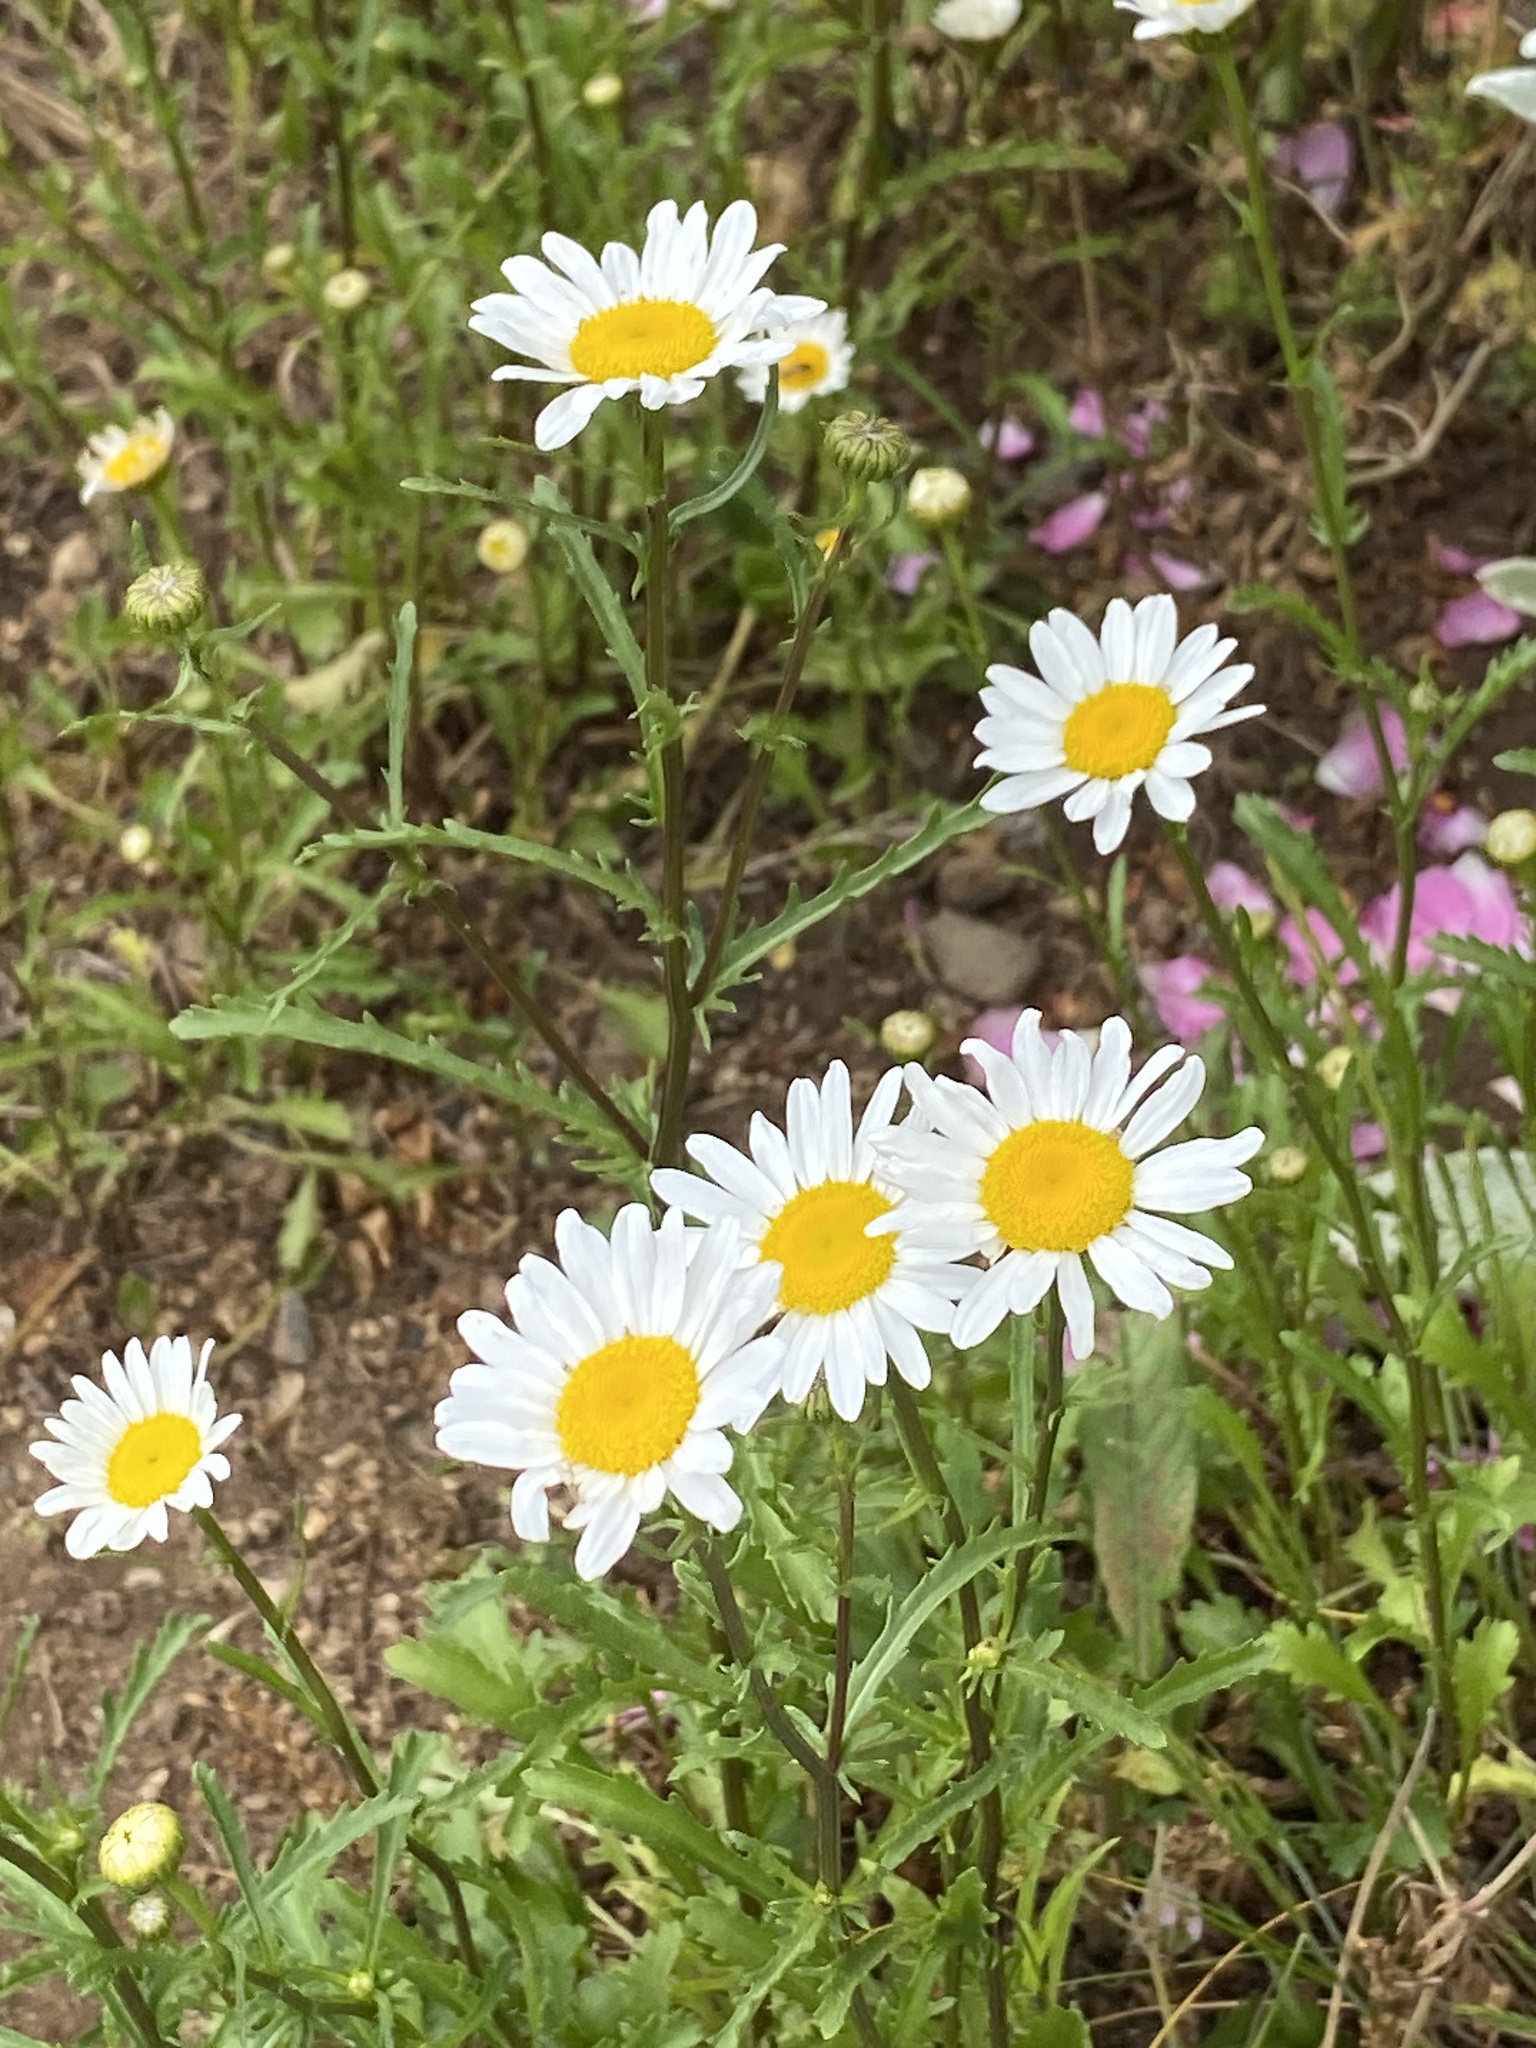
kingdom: Plantae
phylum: Tracheophyta
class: Magnoliopsida
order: Asterales
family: Asteraceae
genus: Leucanthemum
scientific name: Leucanthemum vulgare
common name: Oxeye daisy
